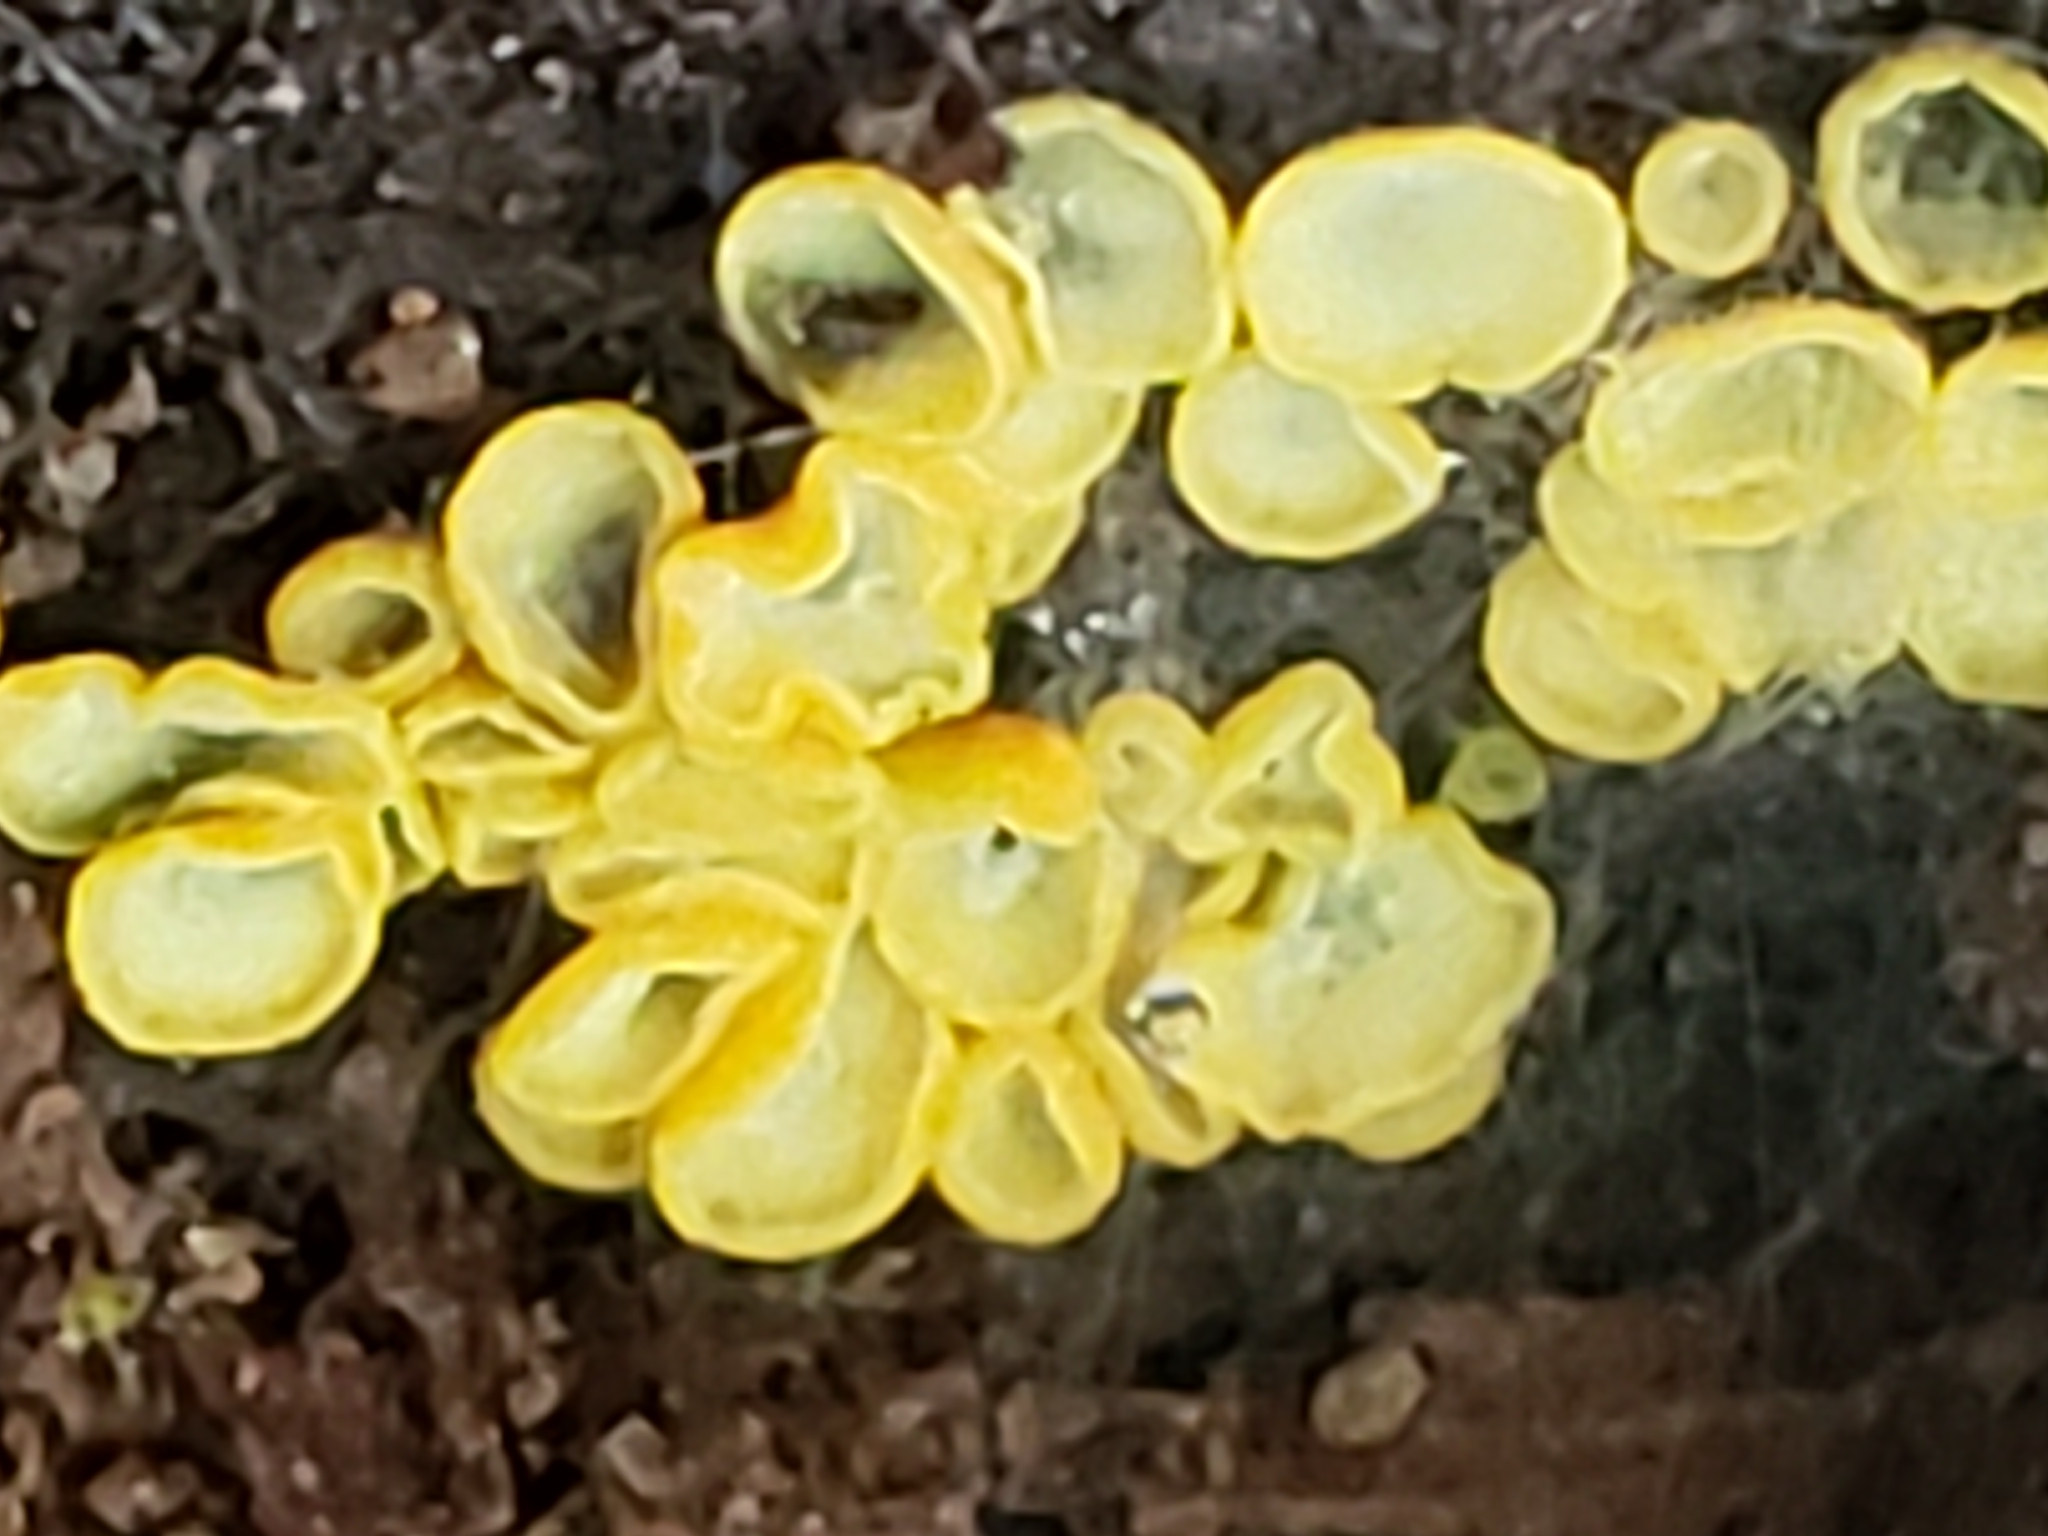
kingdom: Fungi
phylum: Ascomycota
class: Leotiomycetes
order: Helotiales
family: Chlorospleniaceae
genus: Chlorosplenium
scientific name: Chlorosplenium chlora
